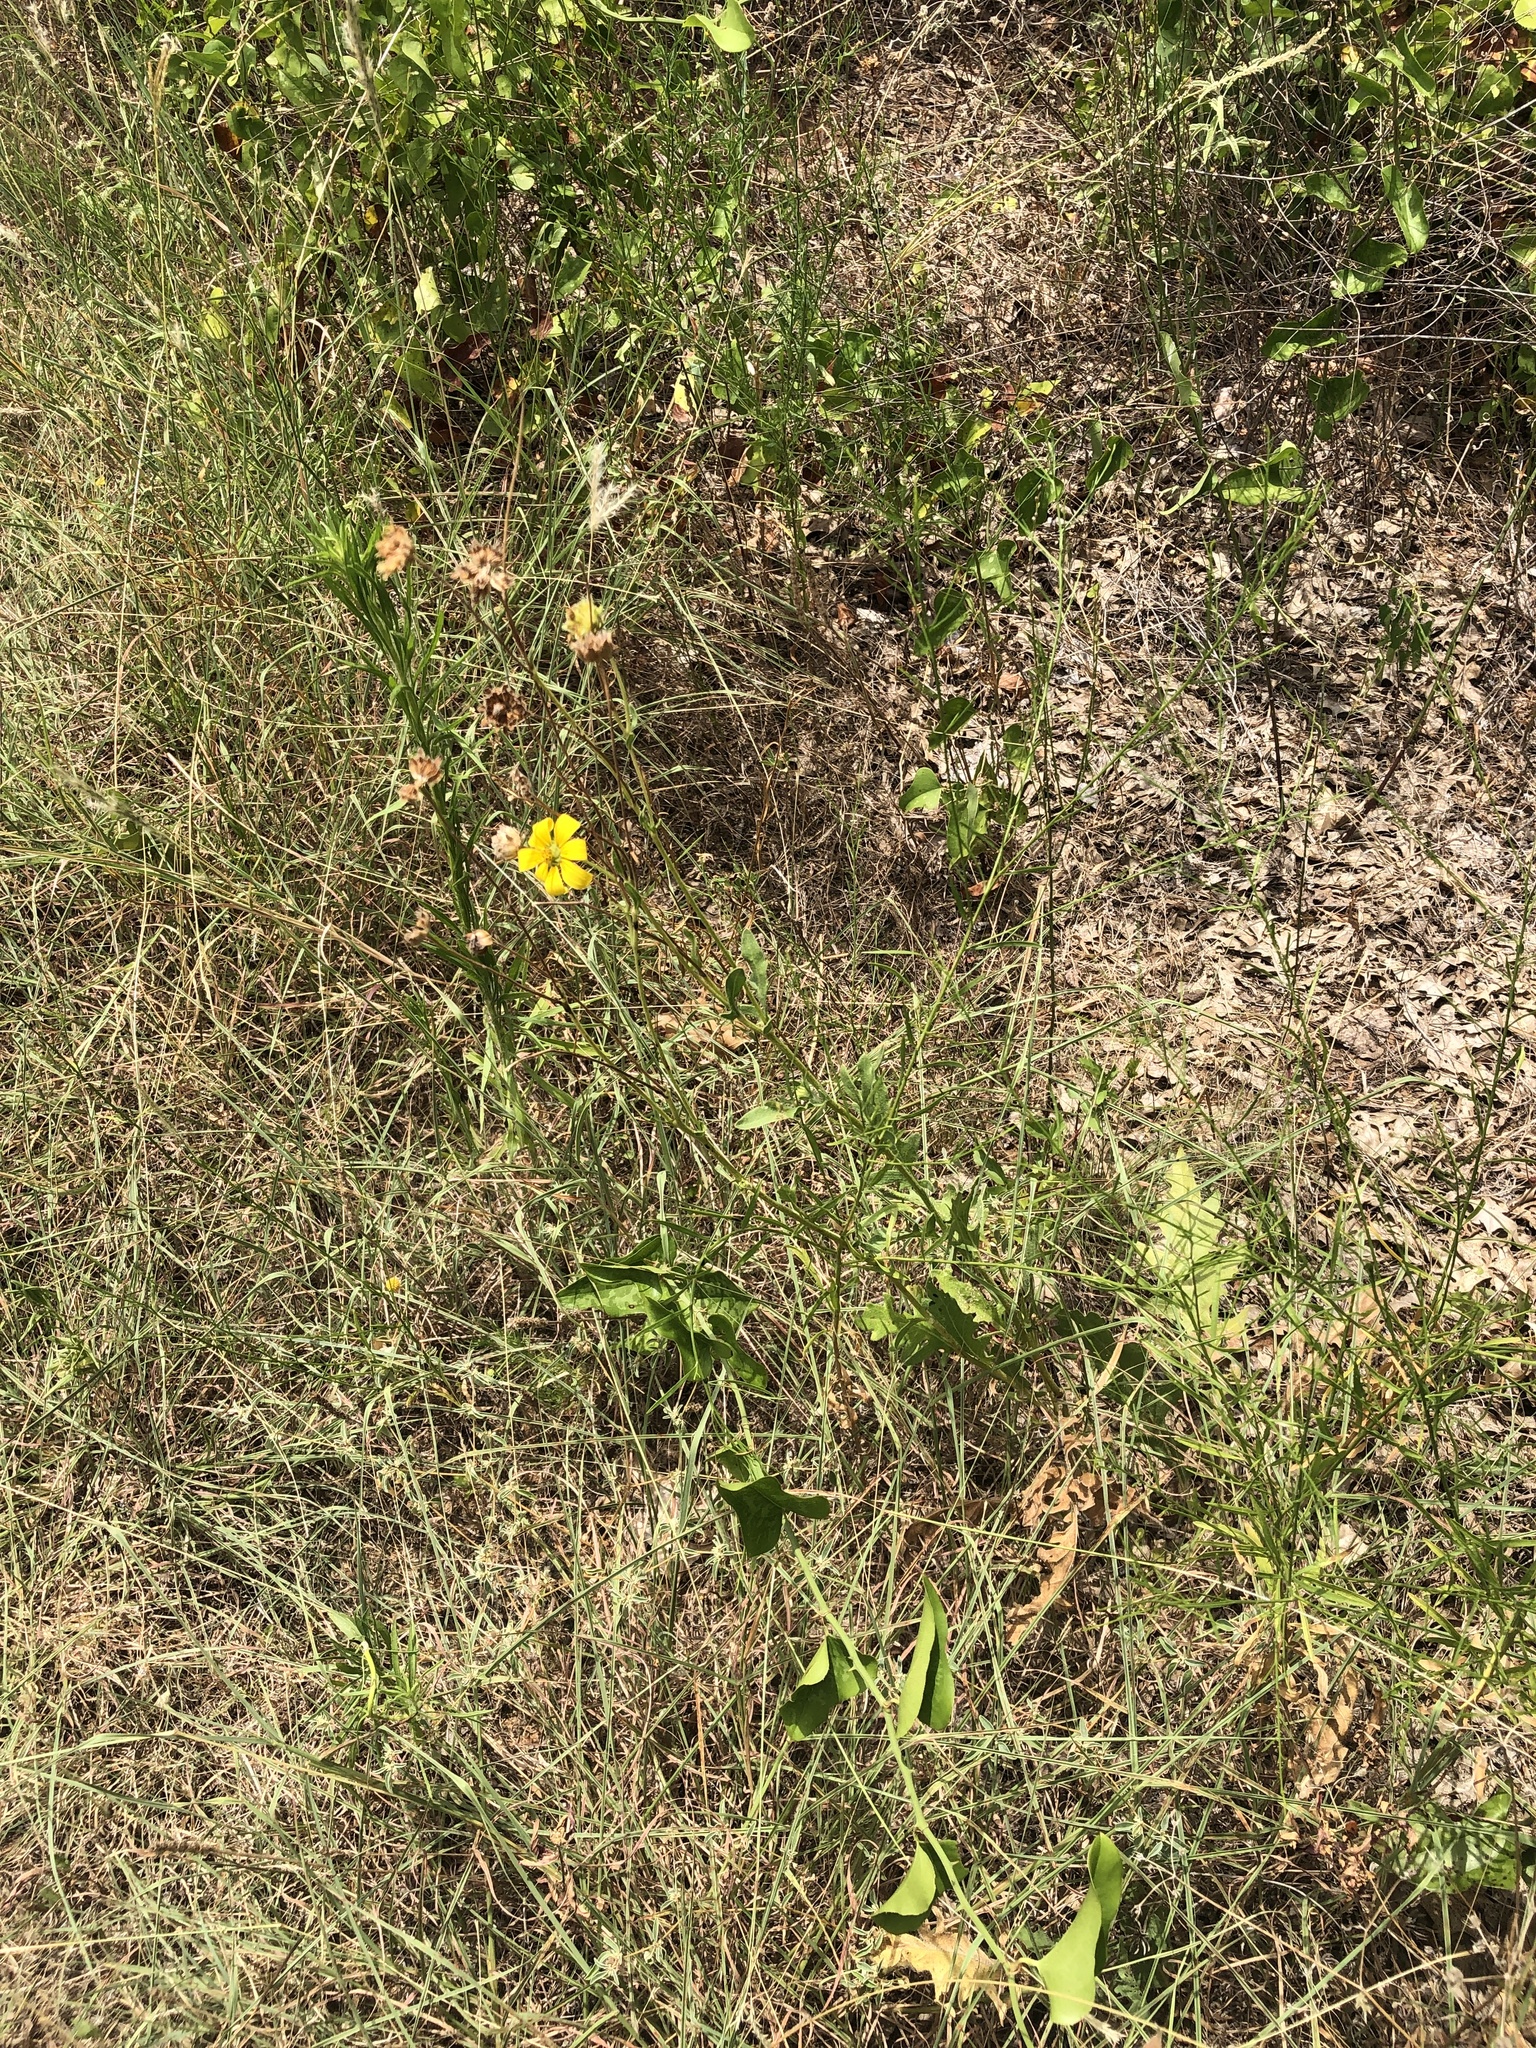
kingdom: Plantae
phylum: Tracheophyta
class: Magnoliopsida
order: Asterales
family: Asteraceae
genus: Engelmannia
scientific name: Engelmannia peristenia
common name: Engelmann's daisy
